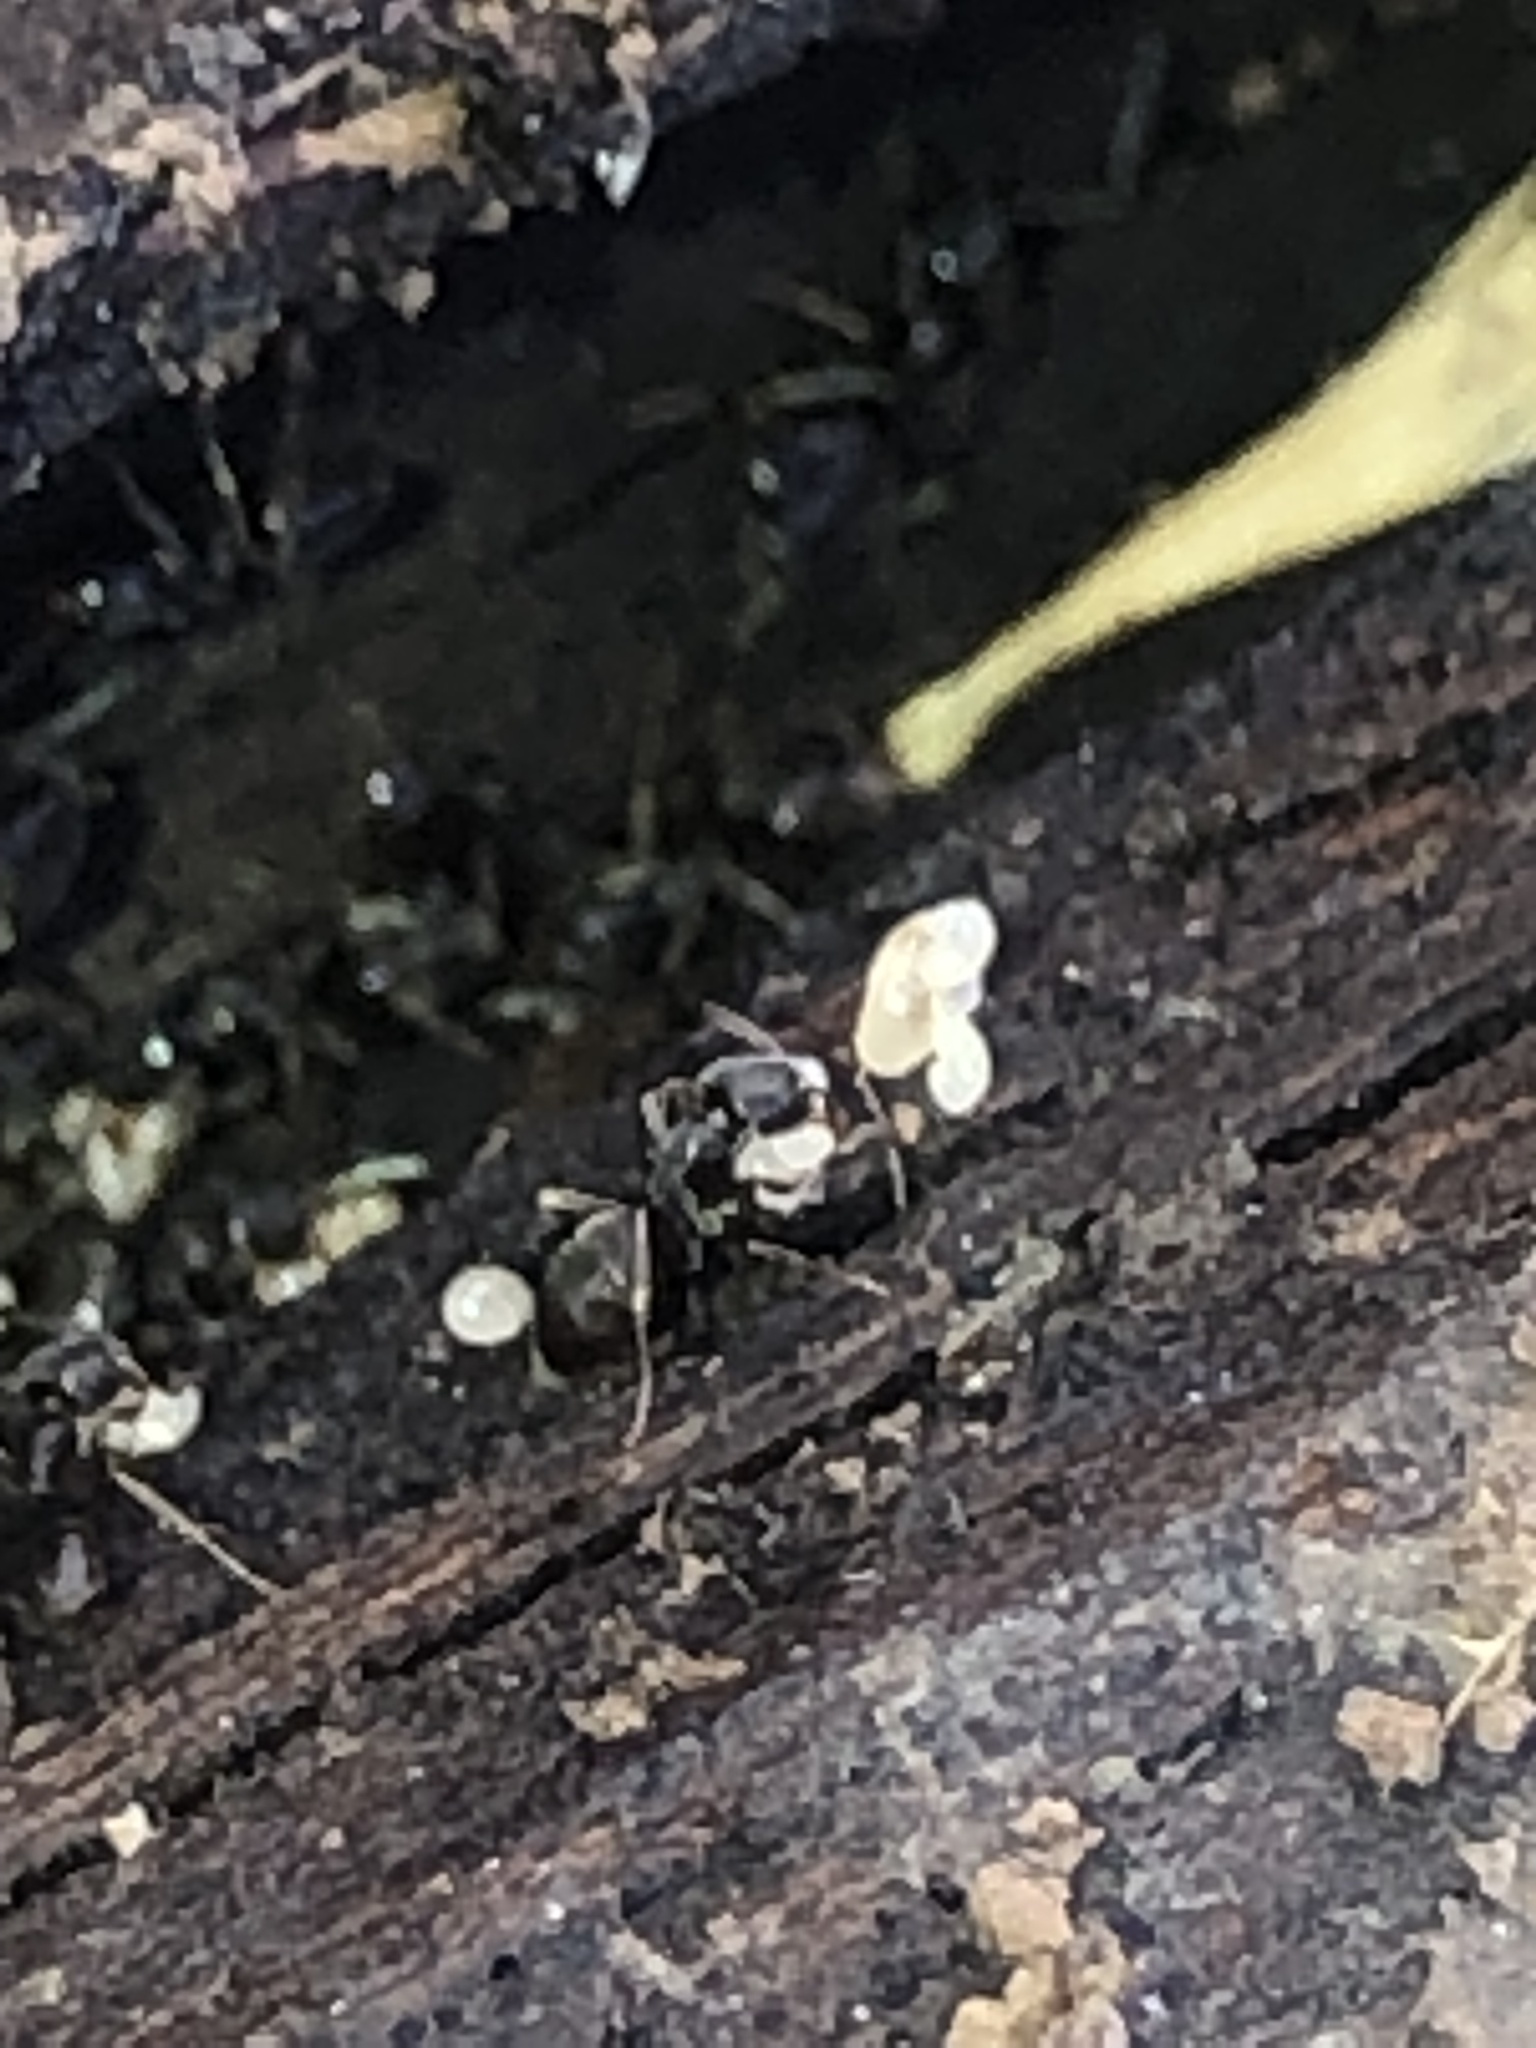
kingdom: Animalia
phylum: Arthropoda
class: Insecta
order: Hymenoptera
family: Formicidae
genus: Tapinoma
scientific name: Tapinoma sessile
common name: Odorous house ant
